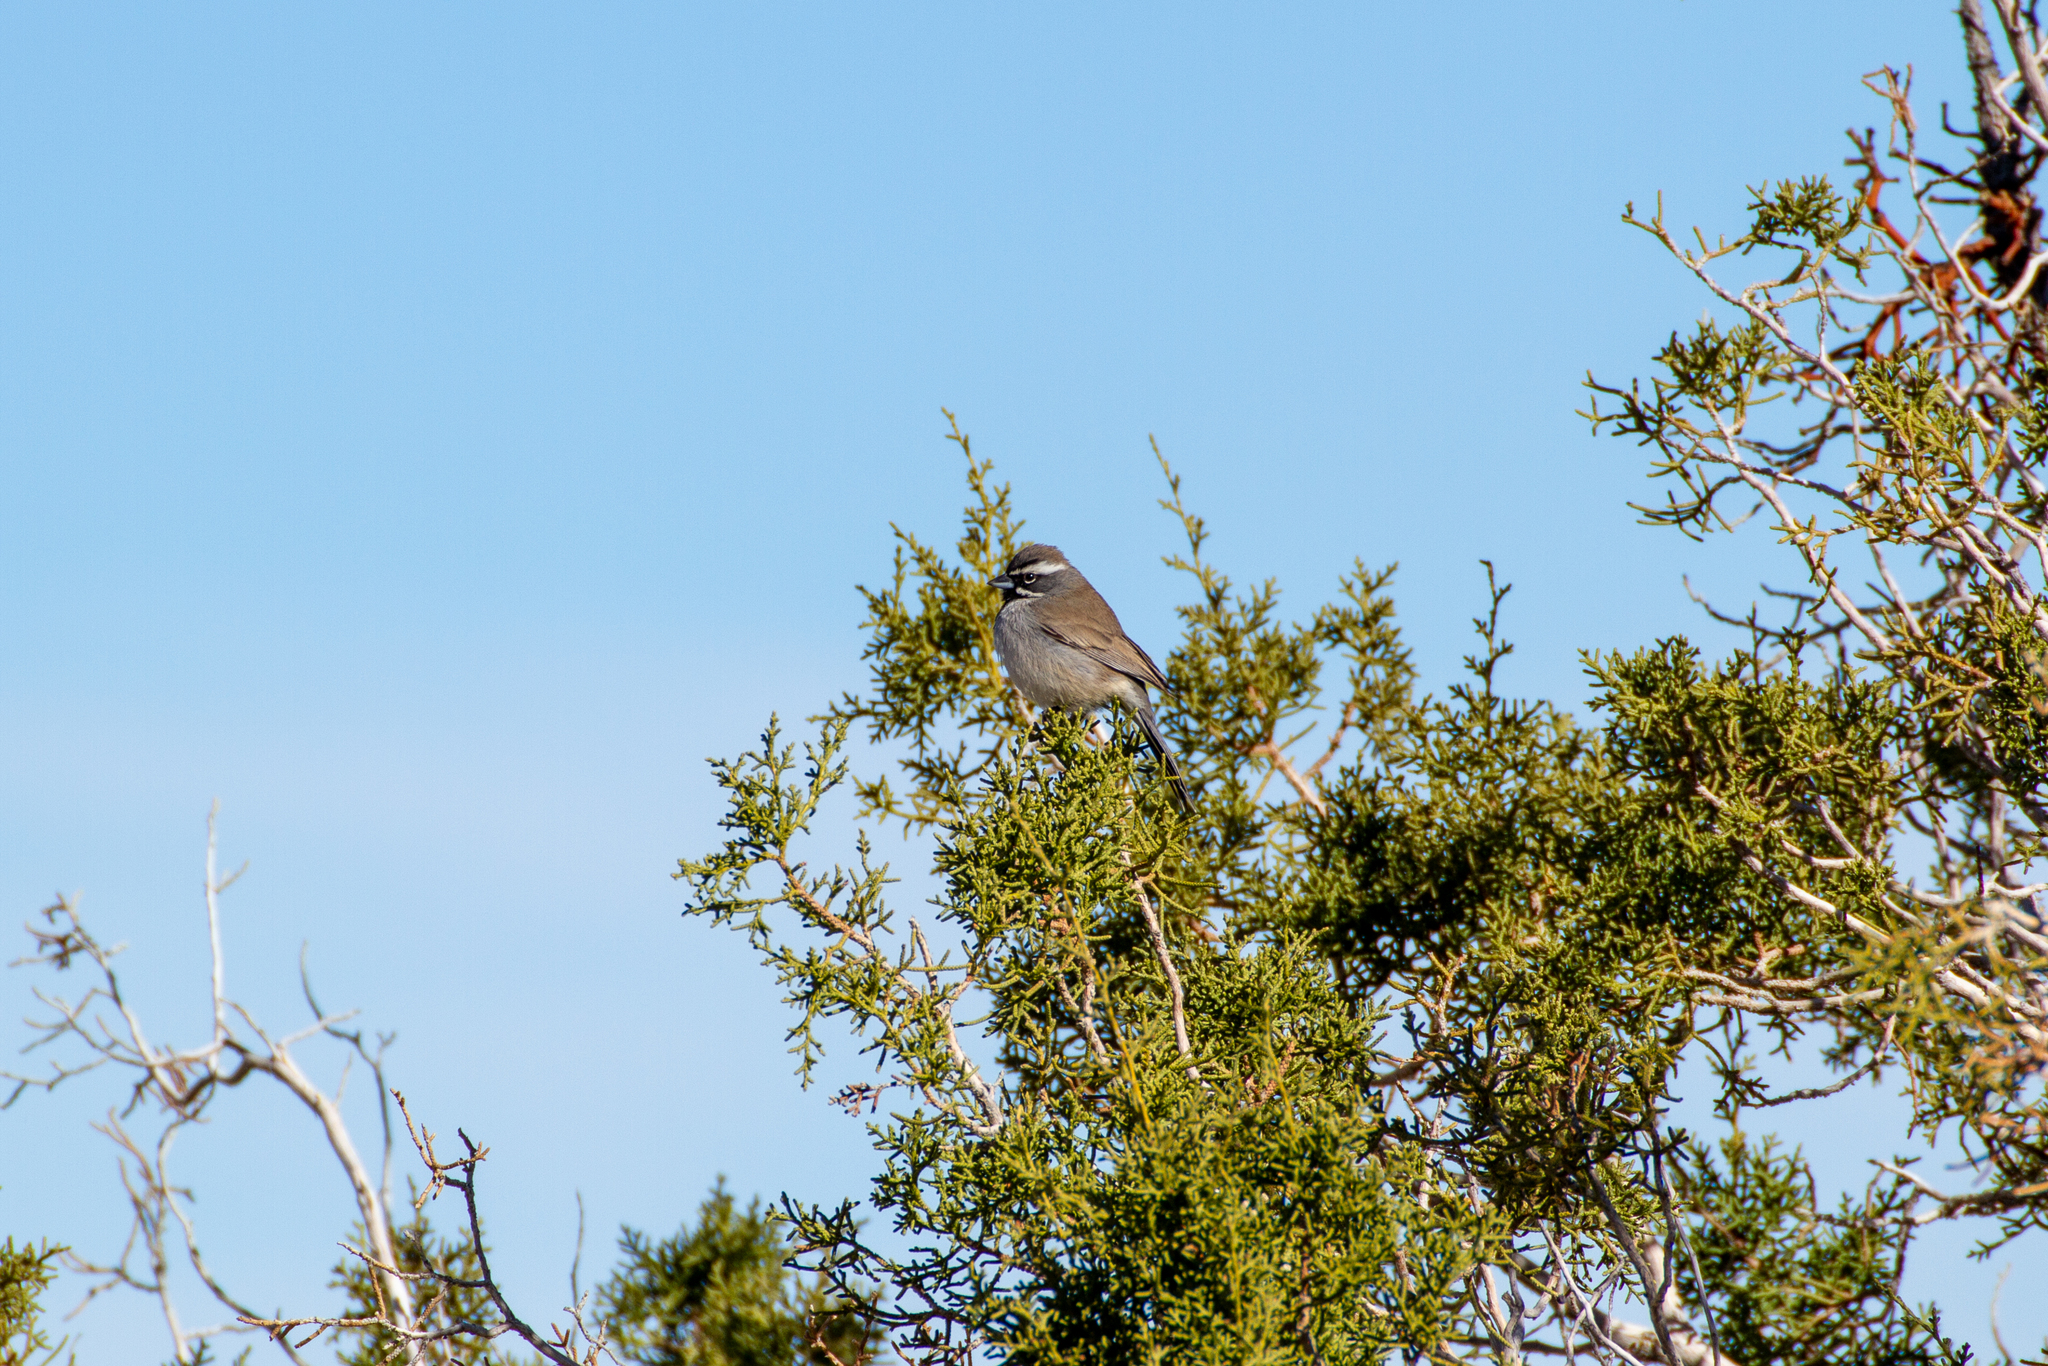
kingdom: Animalia
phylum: Chordata
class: Aves
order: Passeriformes
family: Passerellidae
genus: Amphispiza
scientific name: Amphispiza bilineata
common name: Black-throated sparrow
